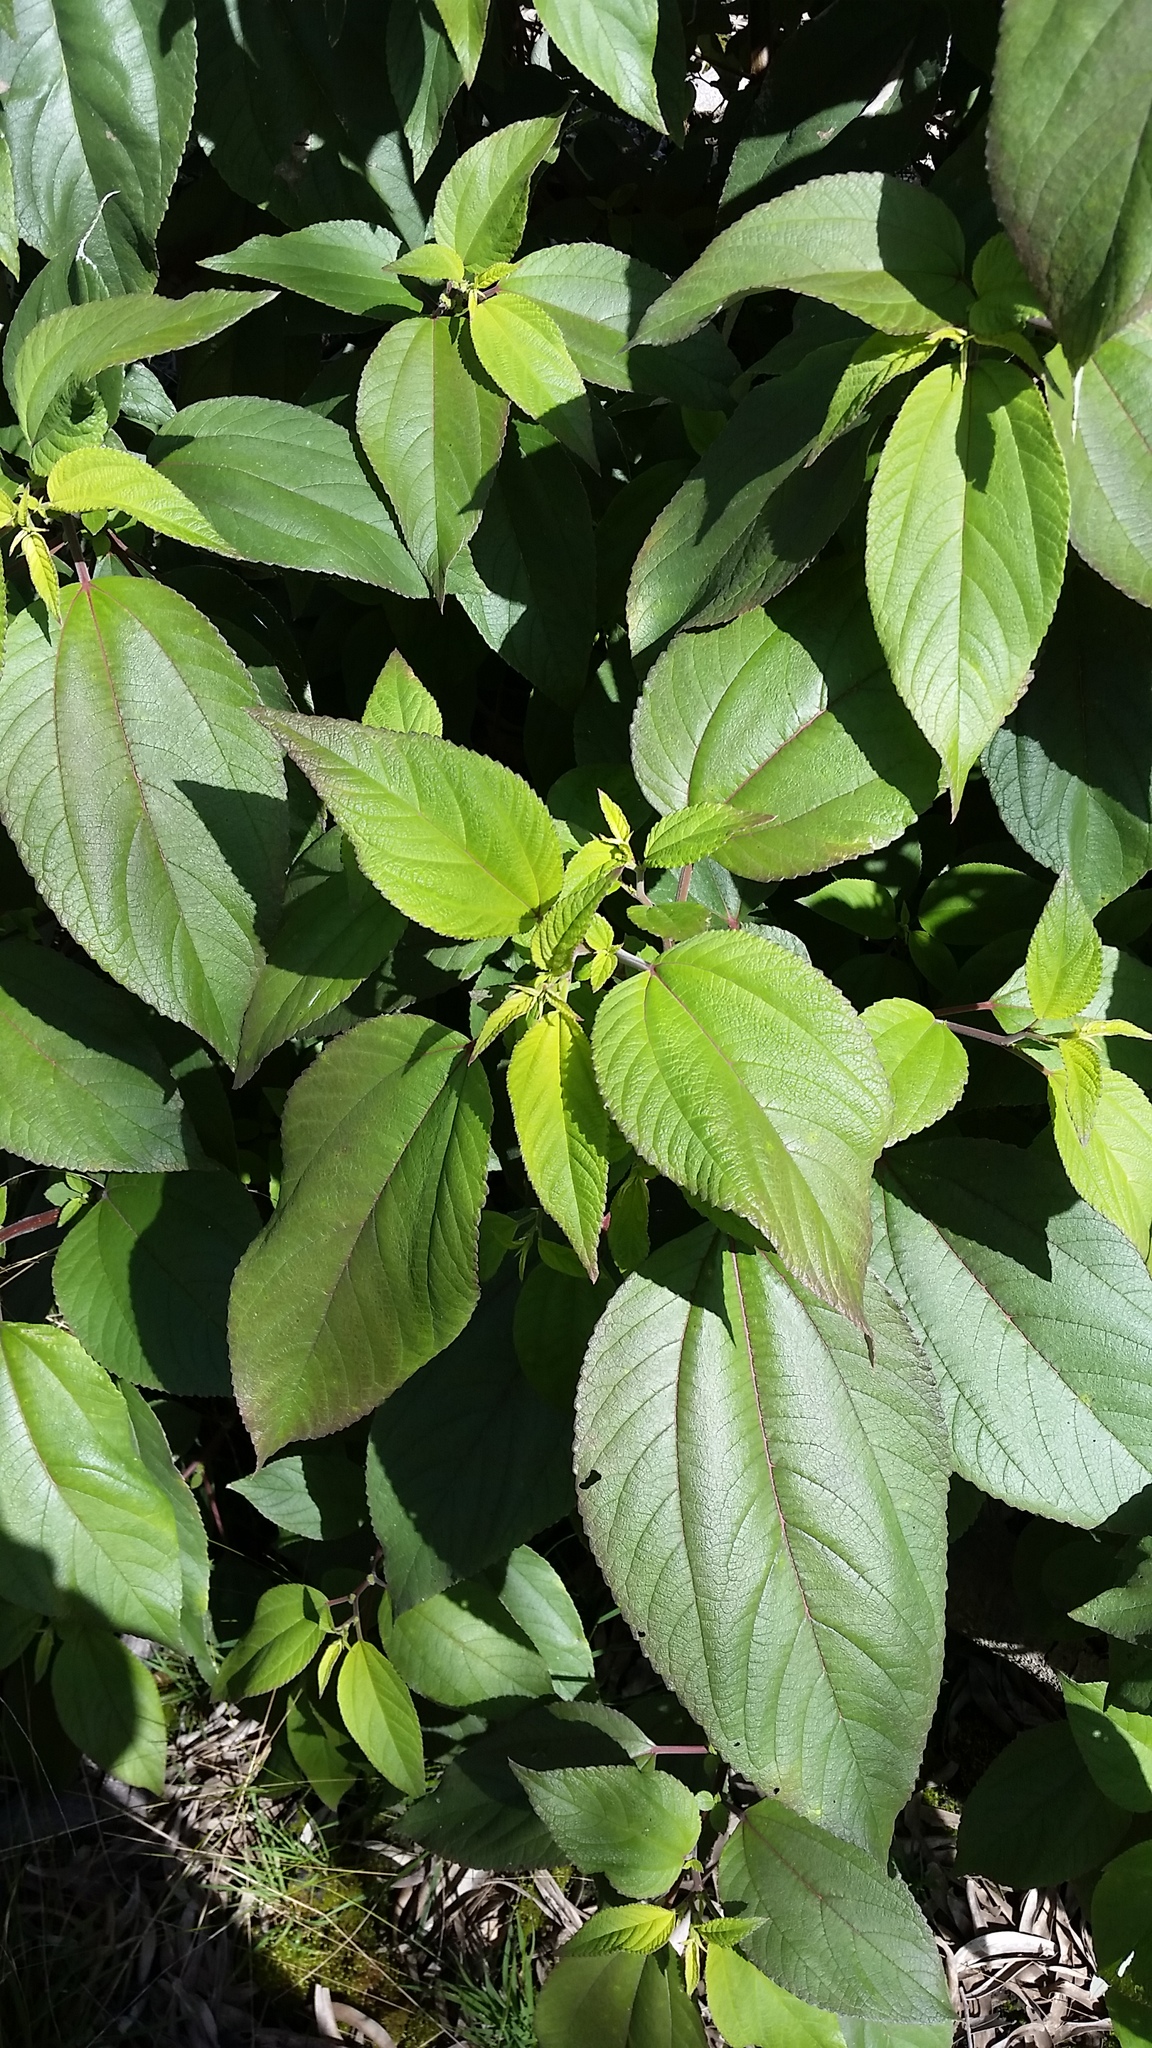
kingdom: Plantae
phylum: Tracheophyta
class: Magnoliopsida
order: Rosales
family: Urticaceae
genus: Pipturus
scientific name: Pipturus albidus
